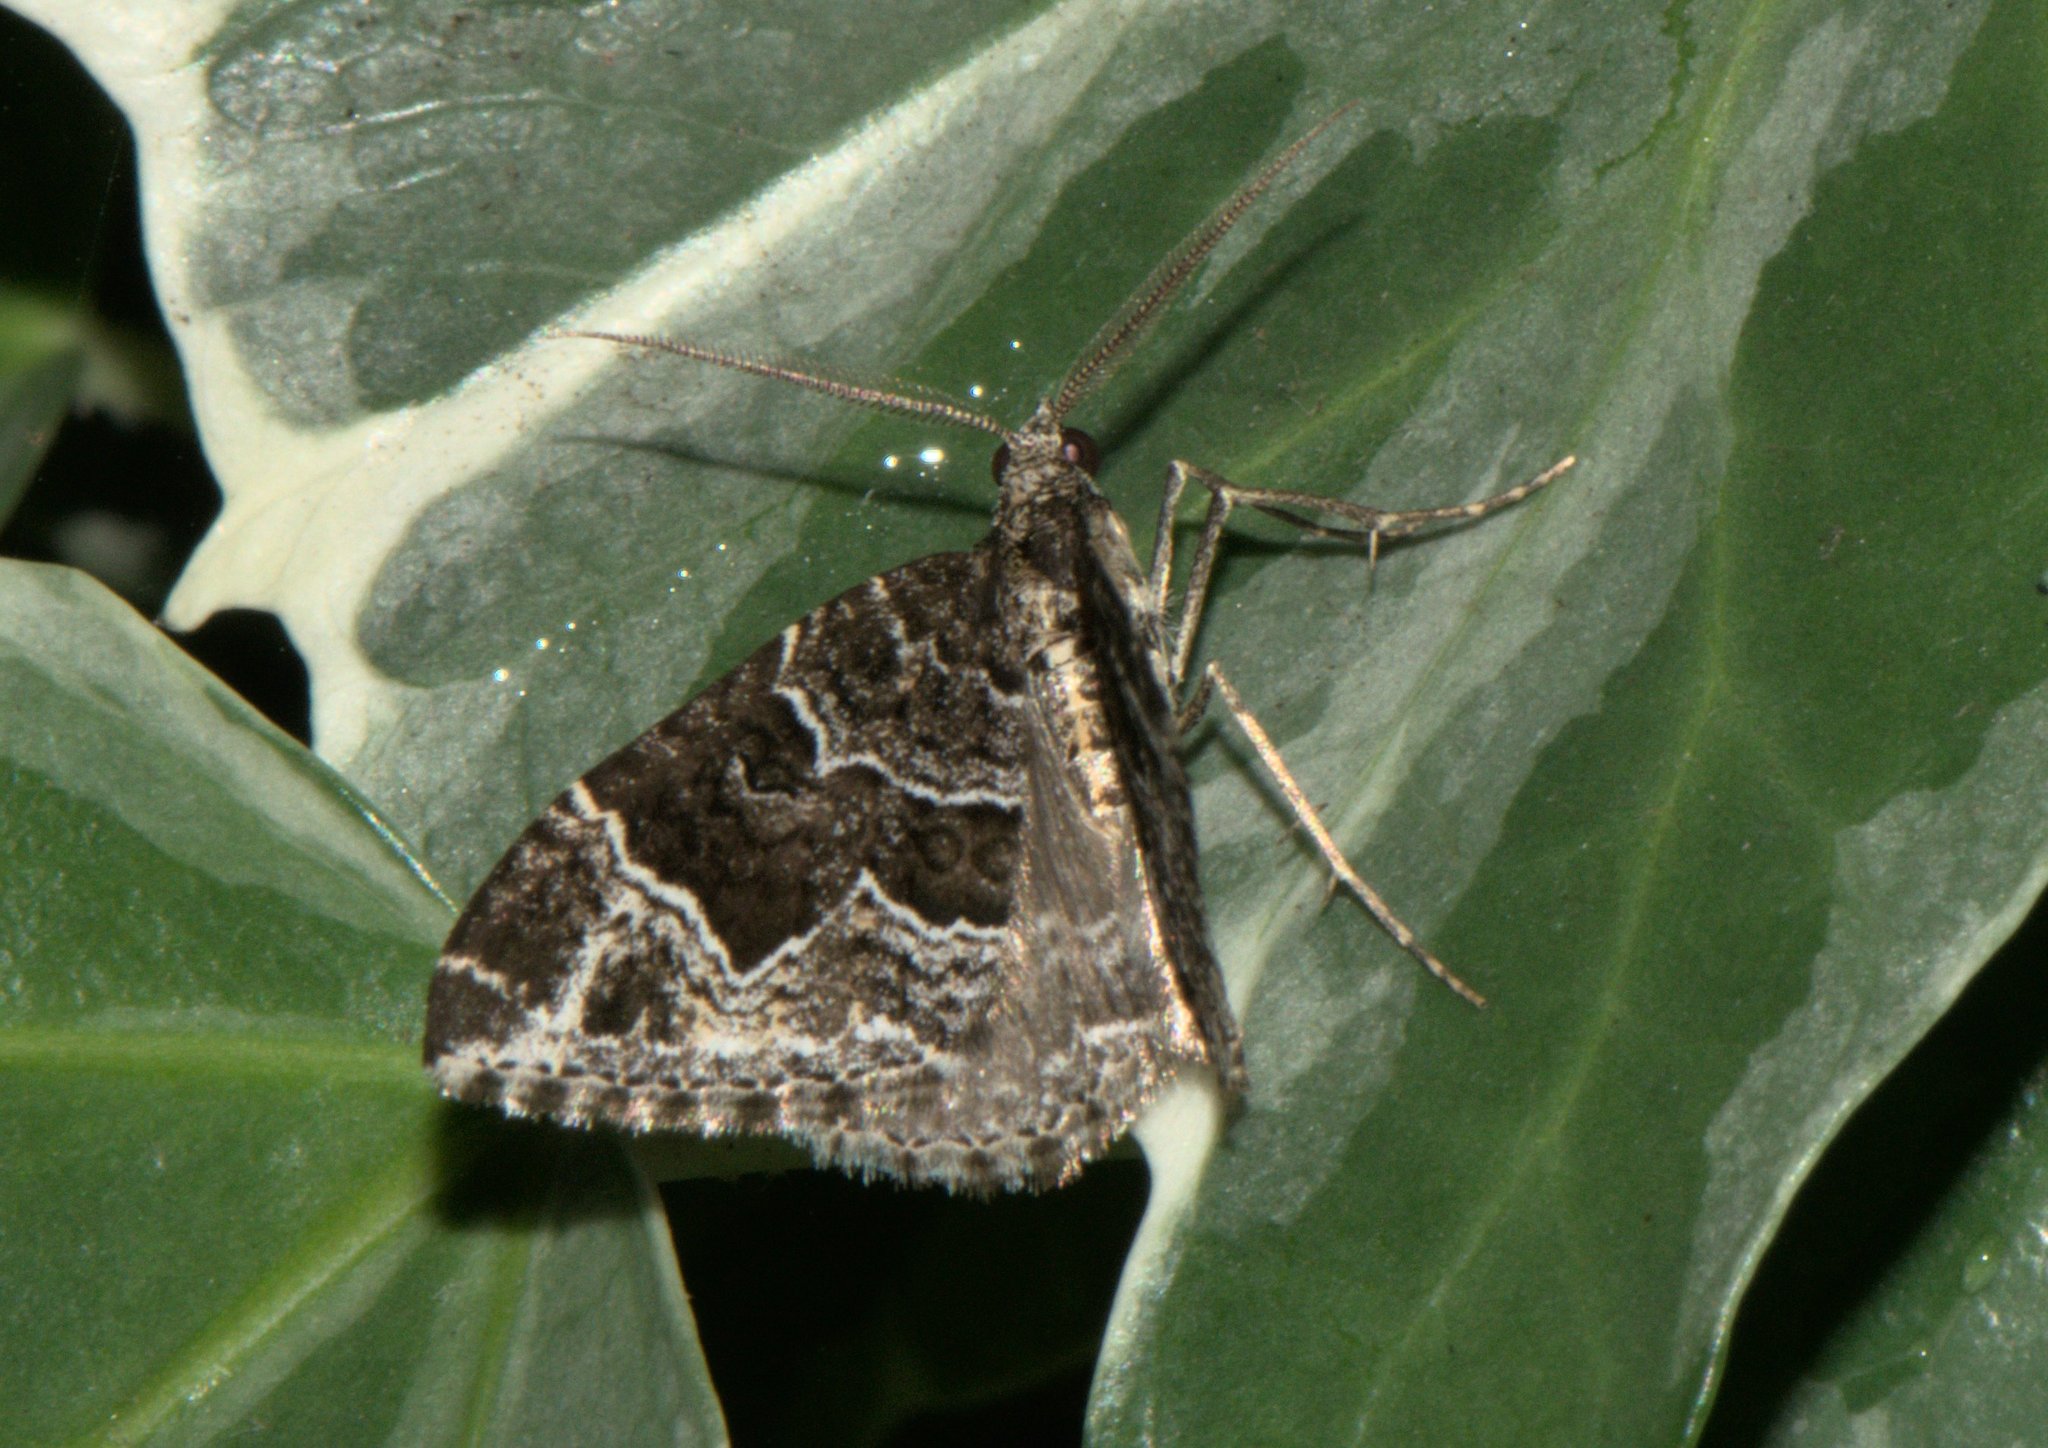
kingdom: Animalia
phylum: Arthropoda
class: Insecta
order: Lepidoptera
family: Geometridae
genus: Colostygia
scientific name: Colostygia albigirata
